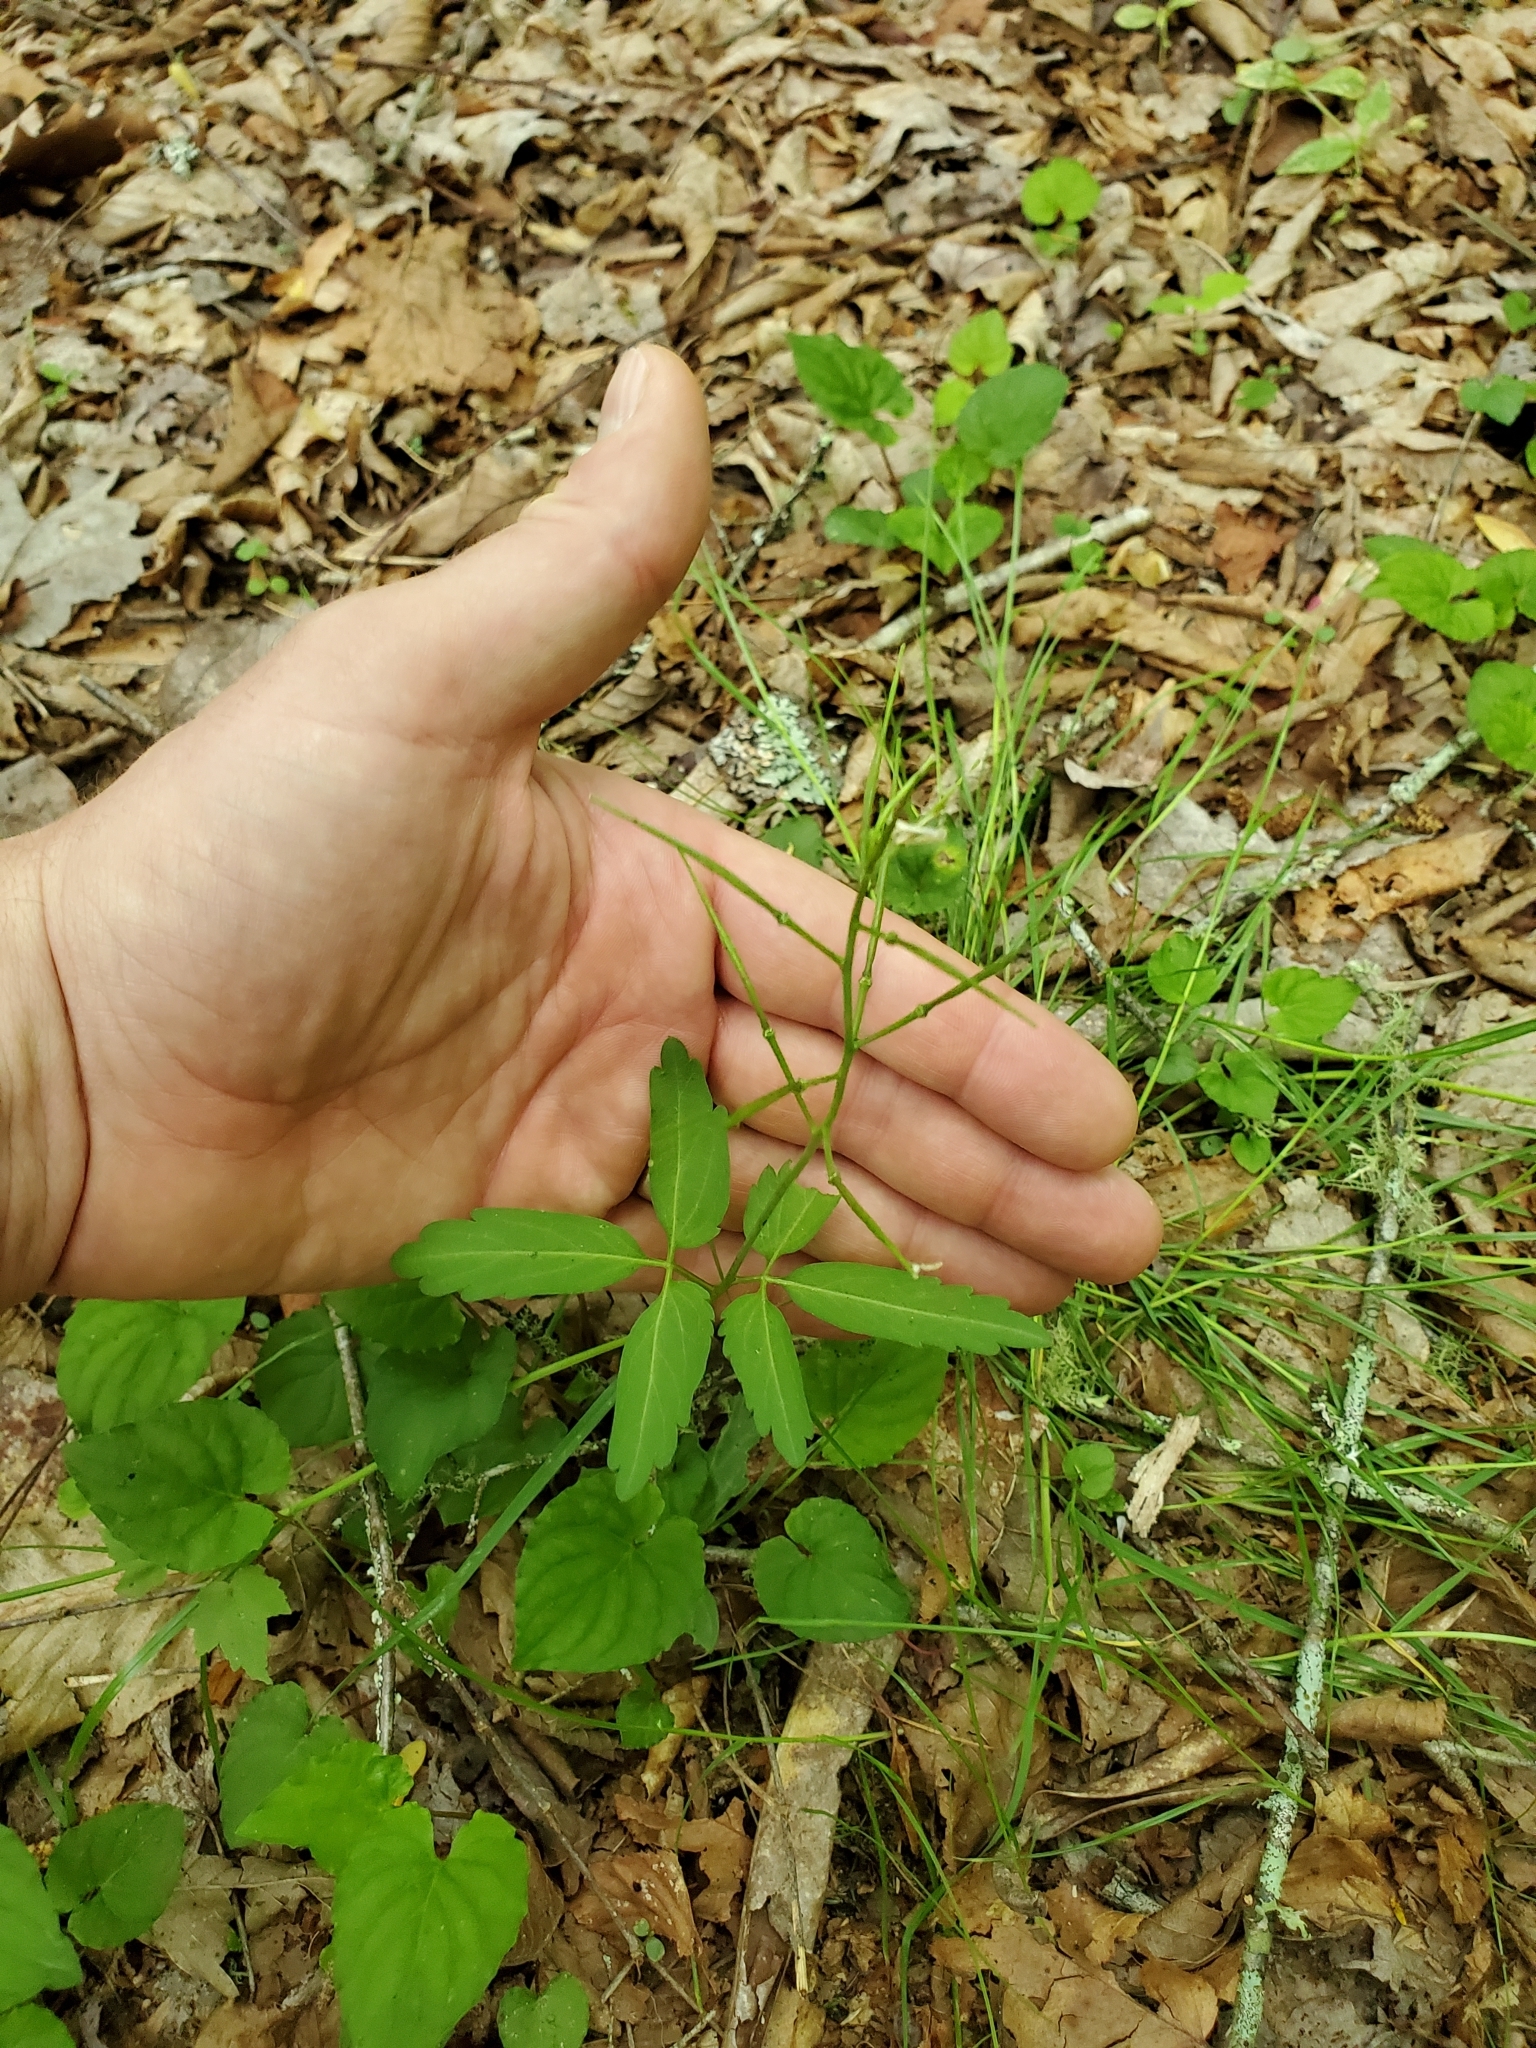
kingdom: Plantae
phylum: Tracheophyta
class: Magnoliopsida
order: Brassicales
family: Brassicaceae
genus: Cardamine
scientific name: Cardamine angustata
